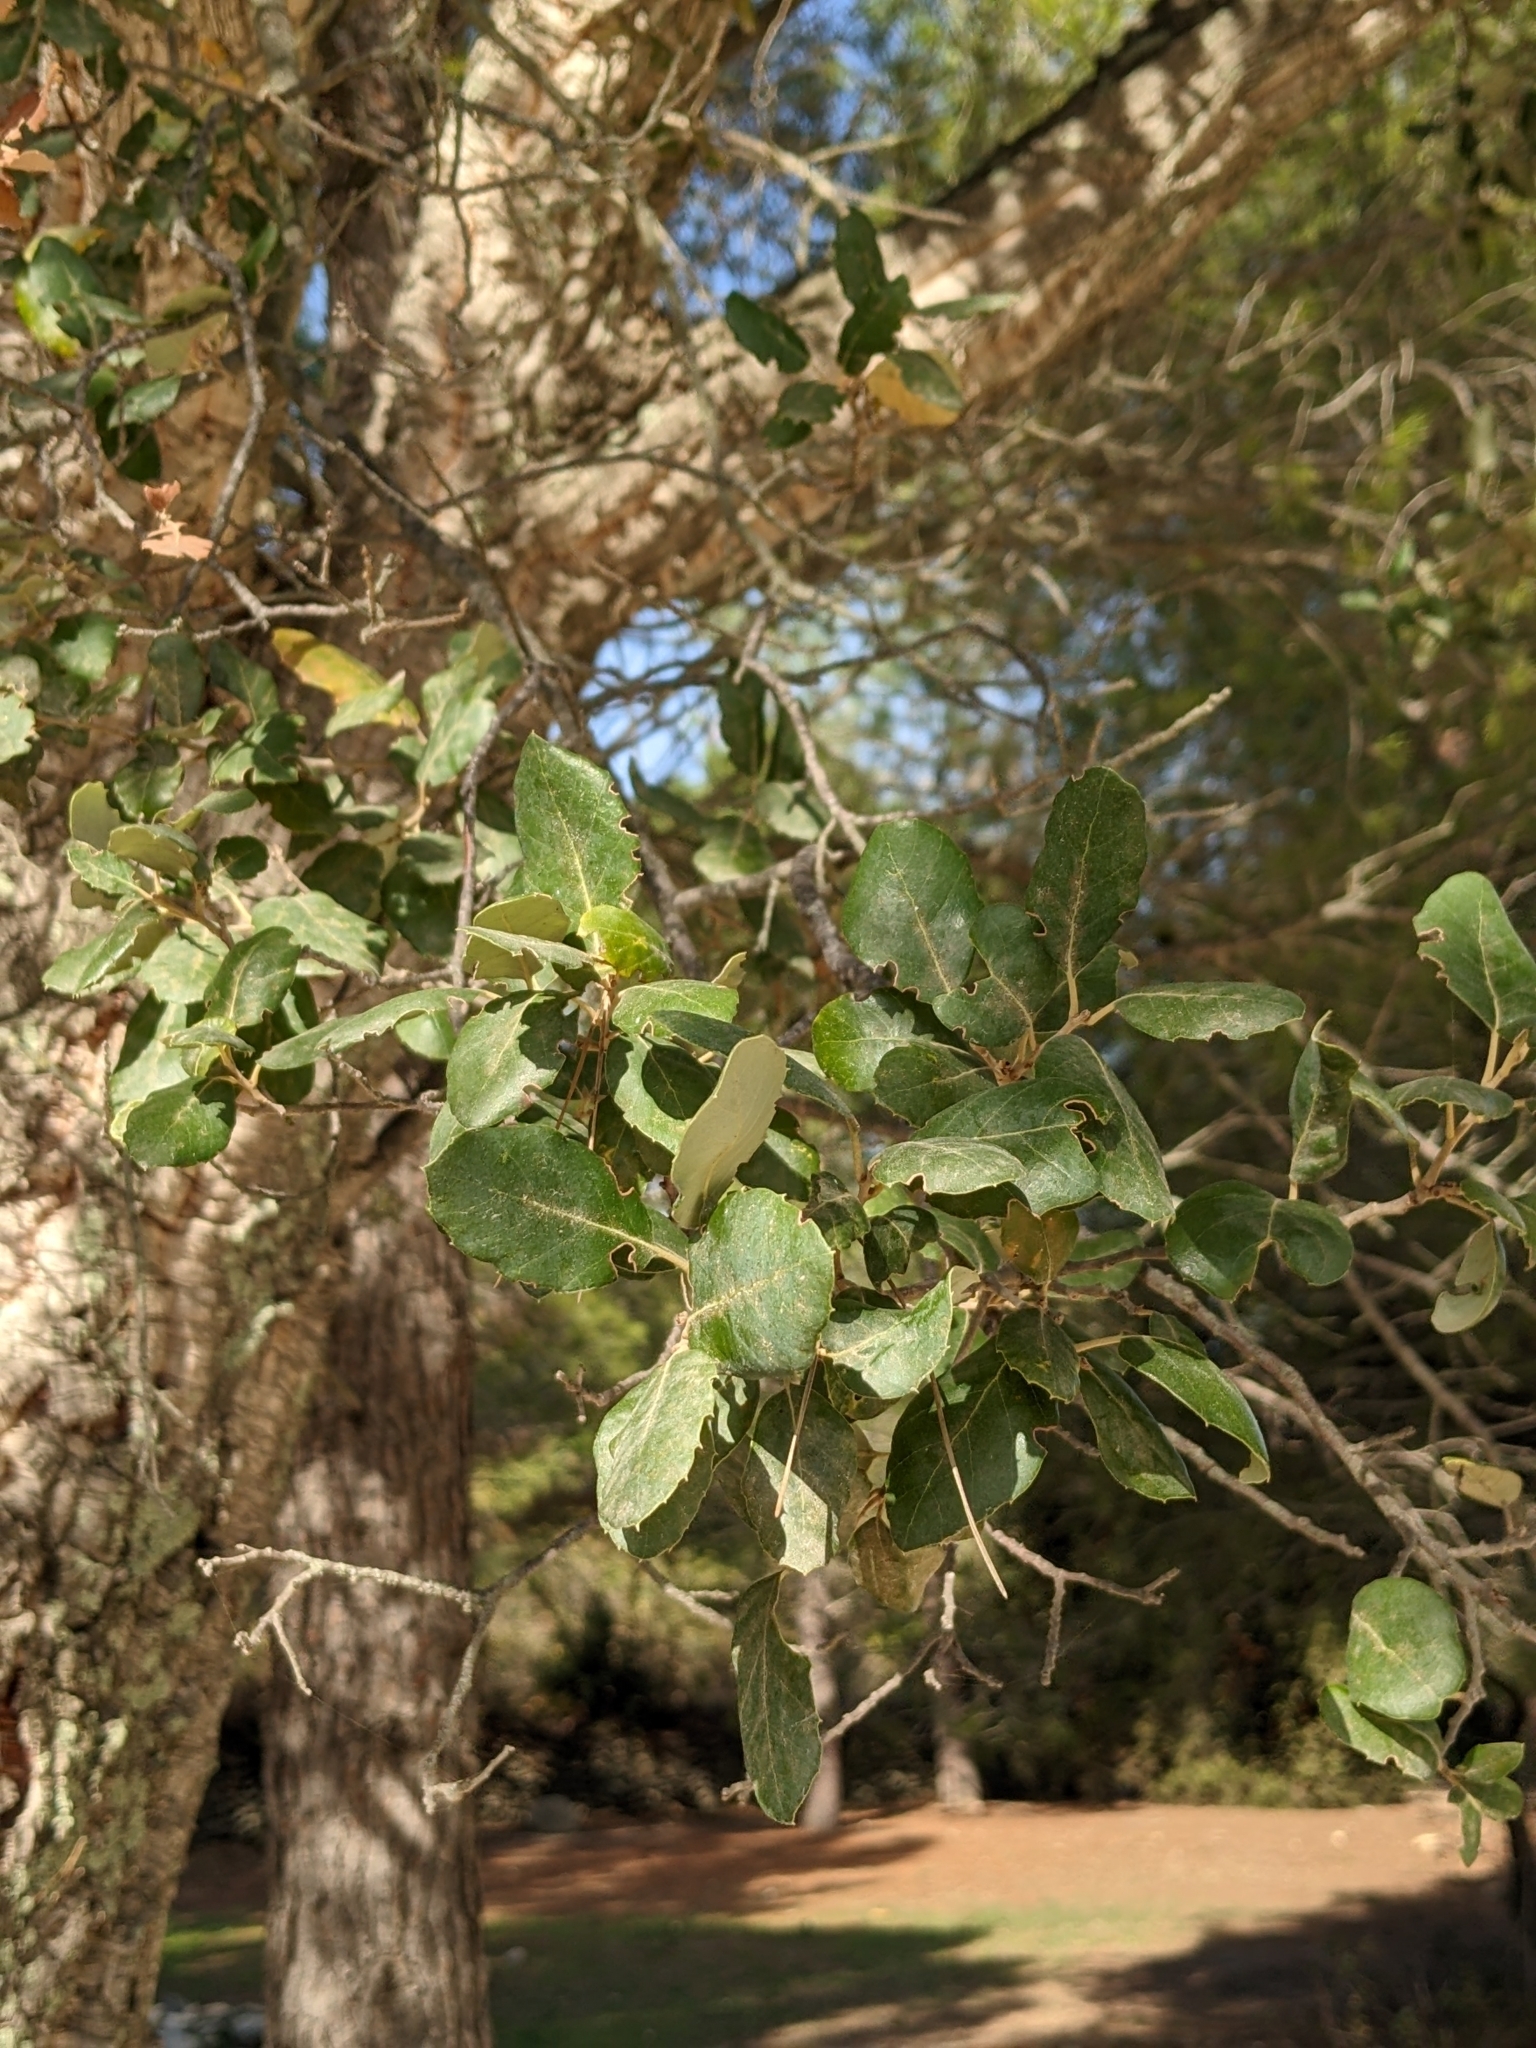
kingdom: Plantae
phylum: Tracheophyta
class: Magnoliopsida
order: Fagales
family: Fagaceae
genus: Quercus
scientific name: Quercus suber
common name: Cork oak
